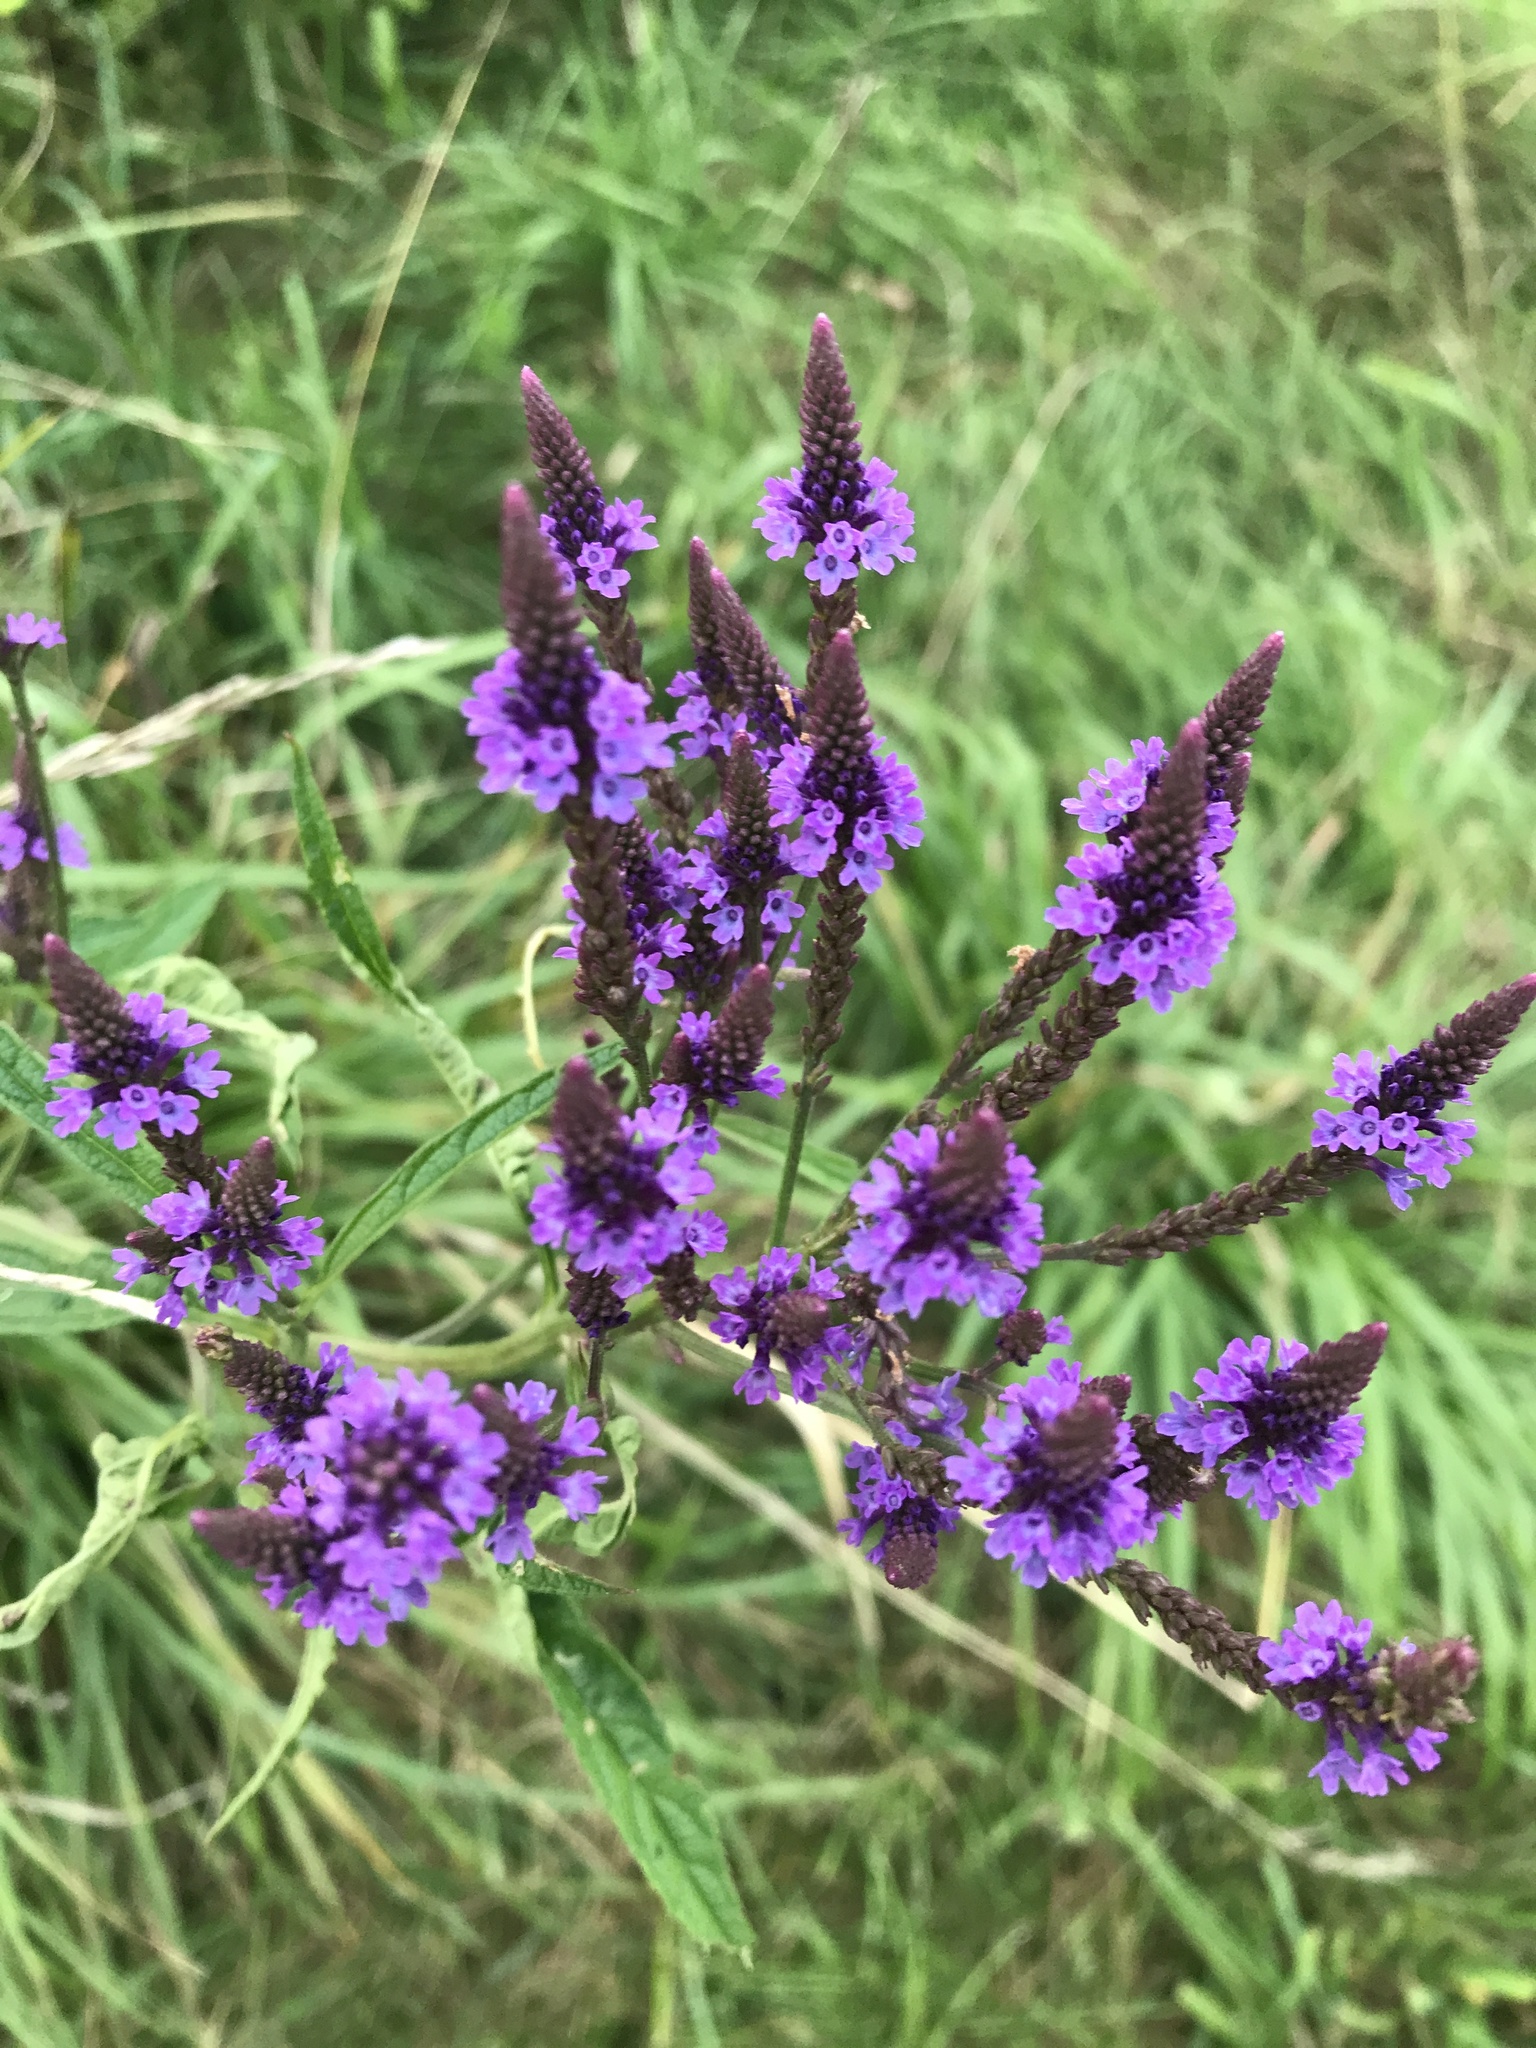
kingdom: Plantae
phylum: Tracheophyta
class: Magnoliopsida
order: Lamiales
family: Verbenaceae
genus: Verbena
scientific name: Verbena hastata
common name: American blue vervain
